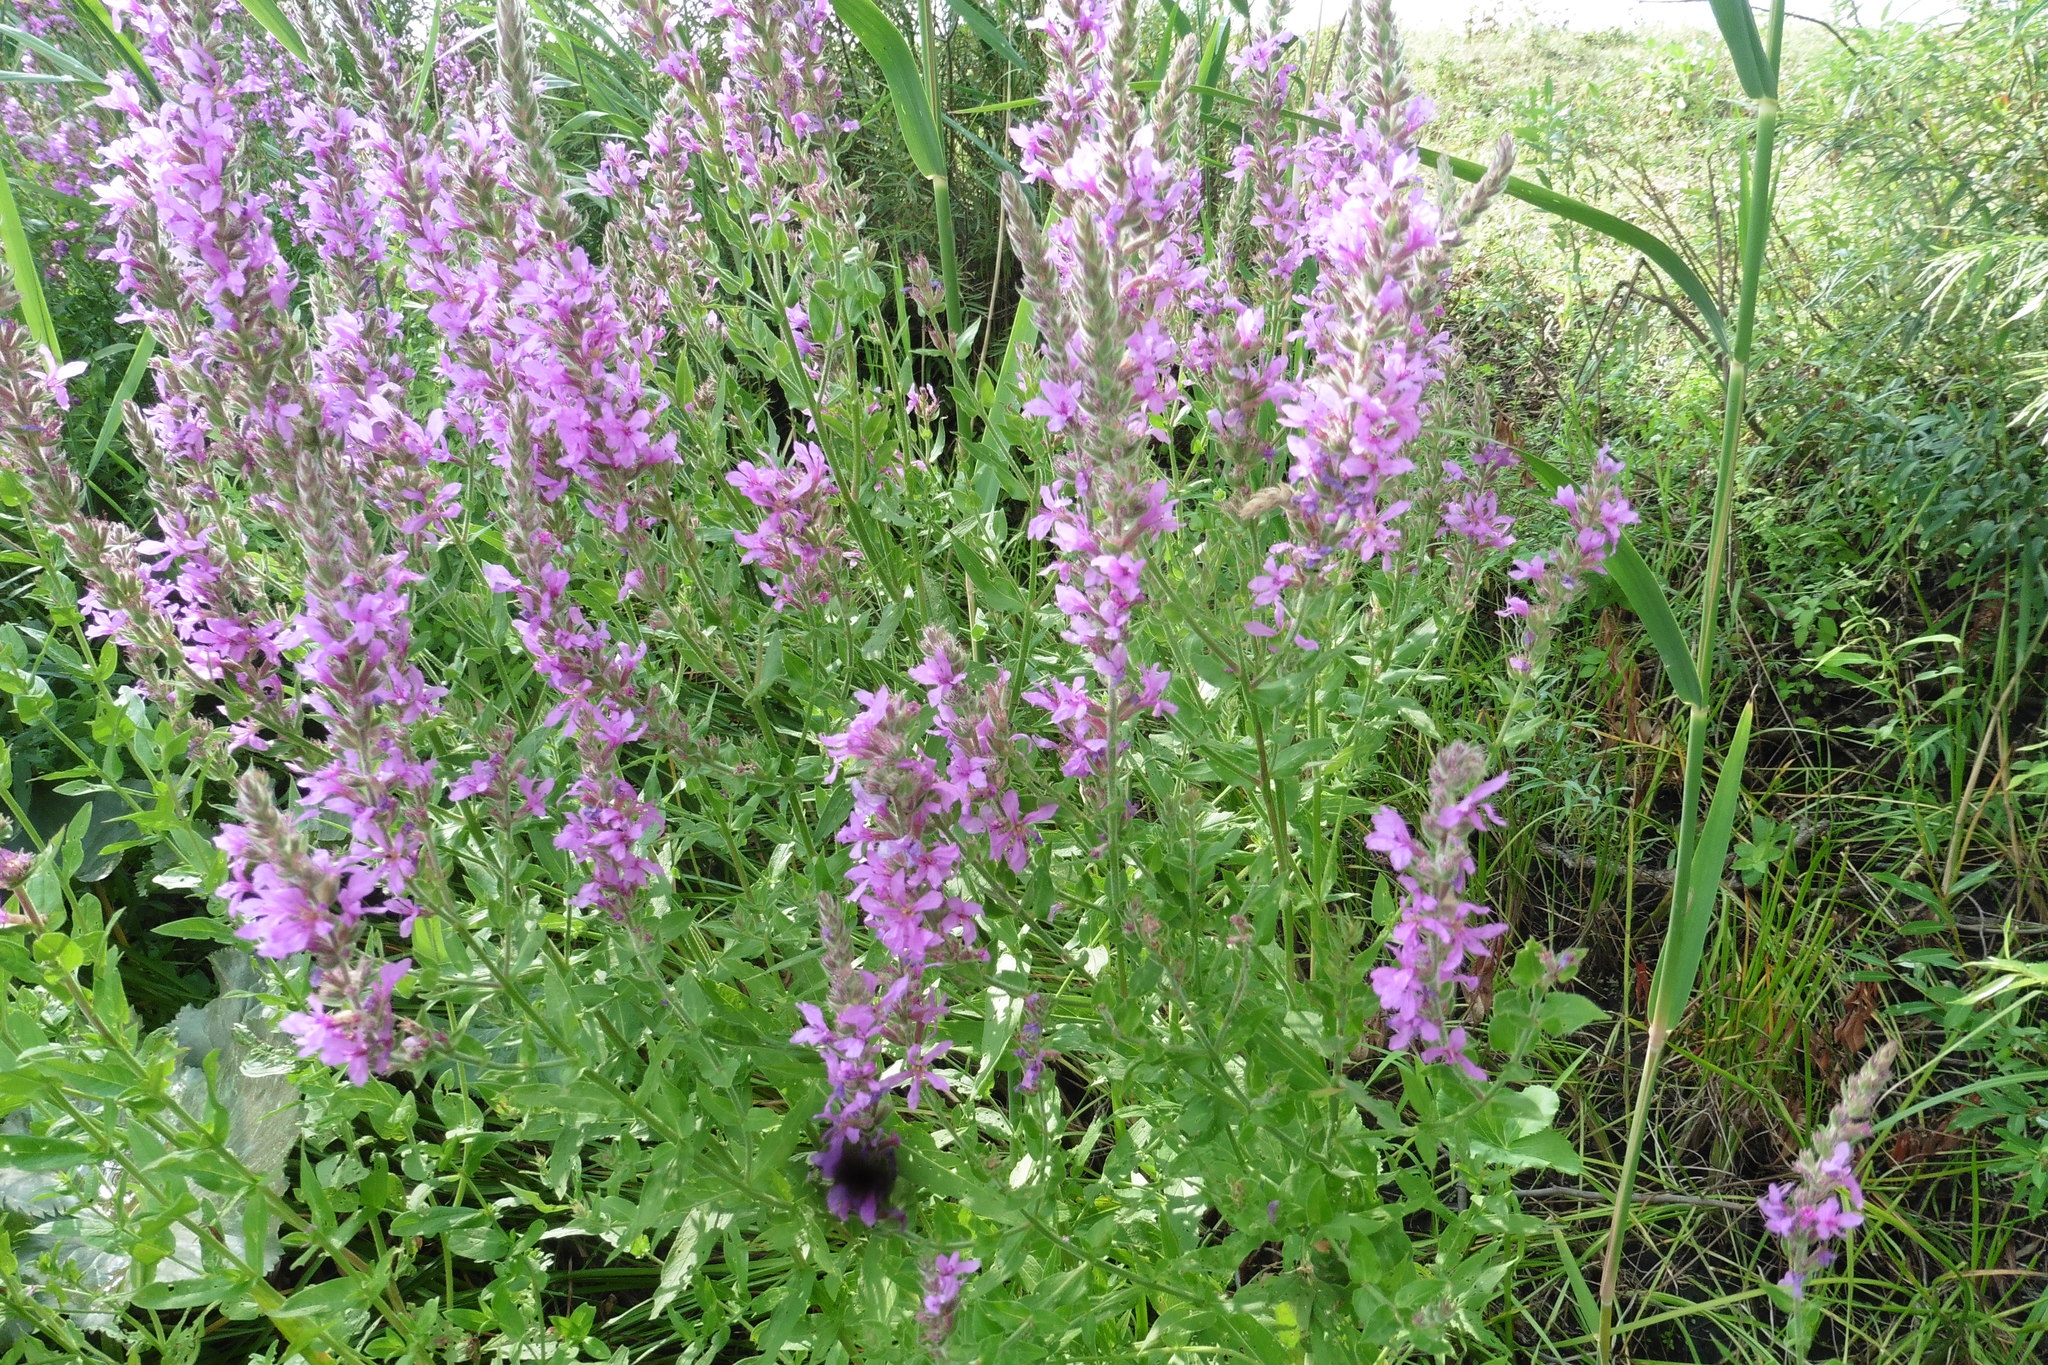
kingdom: Plantae
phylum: Tracheophyta
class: Magnoliopsida
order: Myrtales
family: Lythraceae
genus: Lythrum
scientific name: Lythrum salicaria
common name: Purple loosestrife
